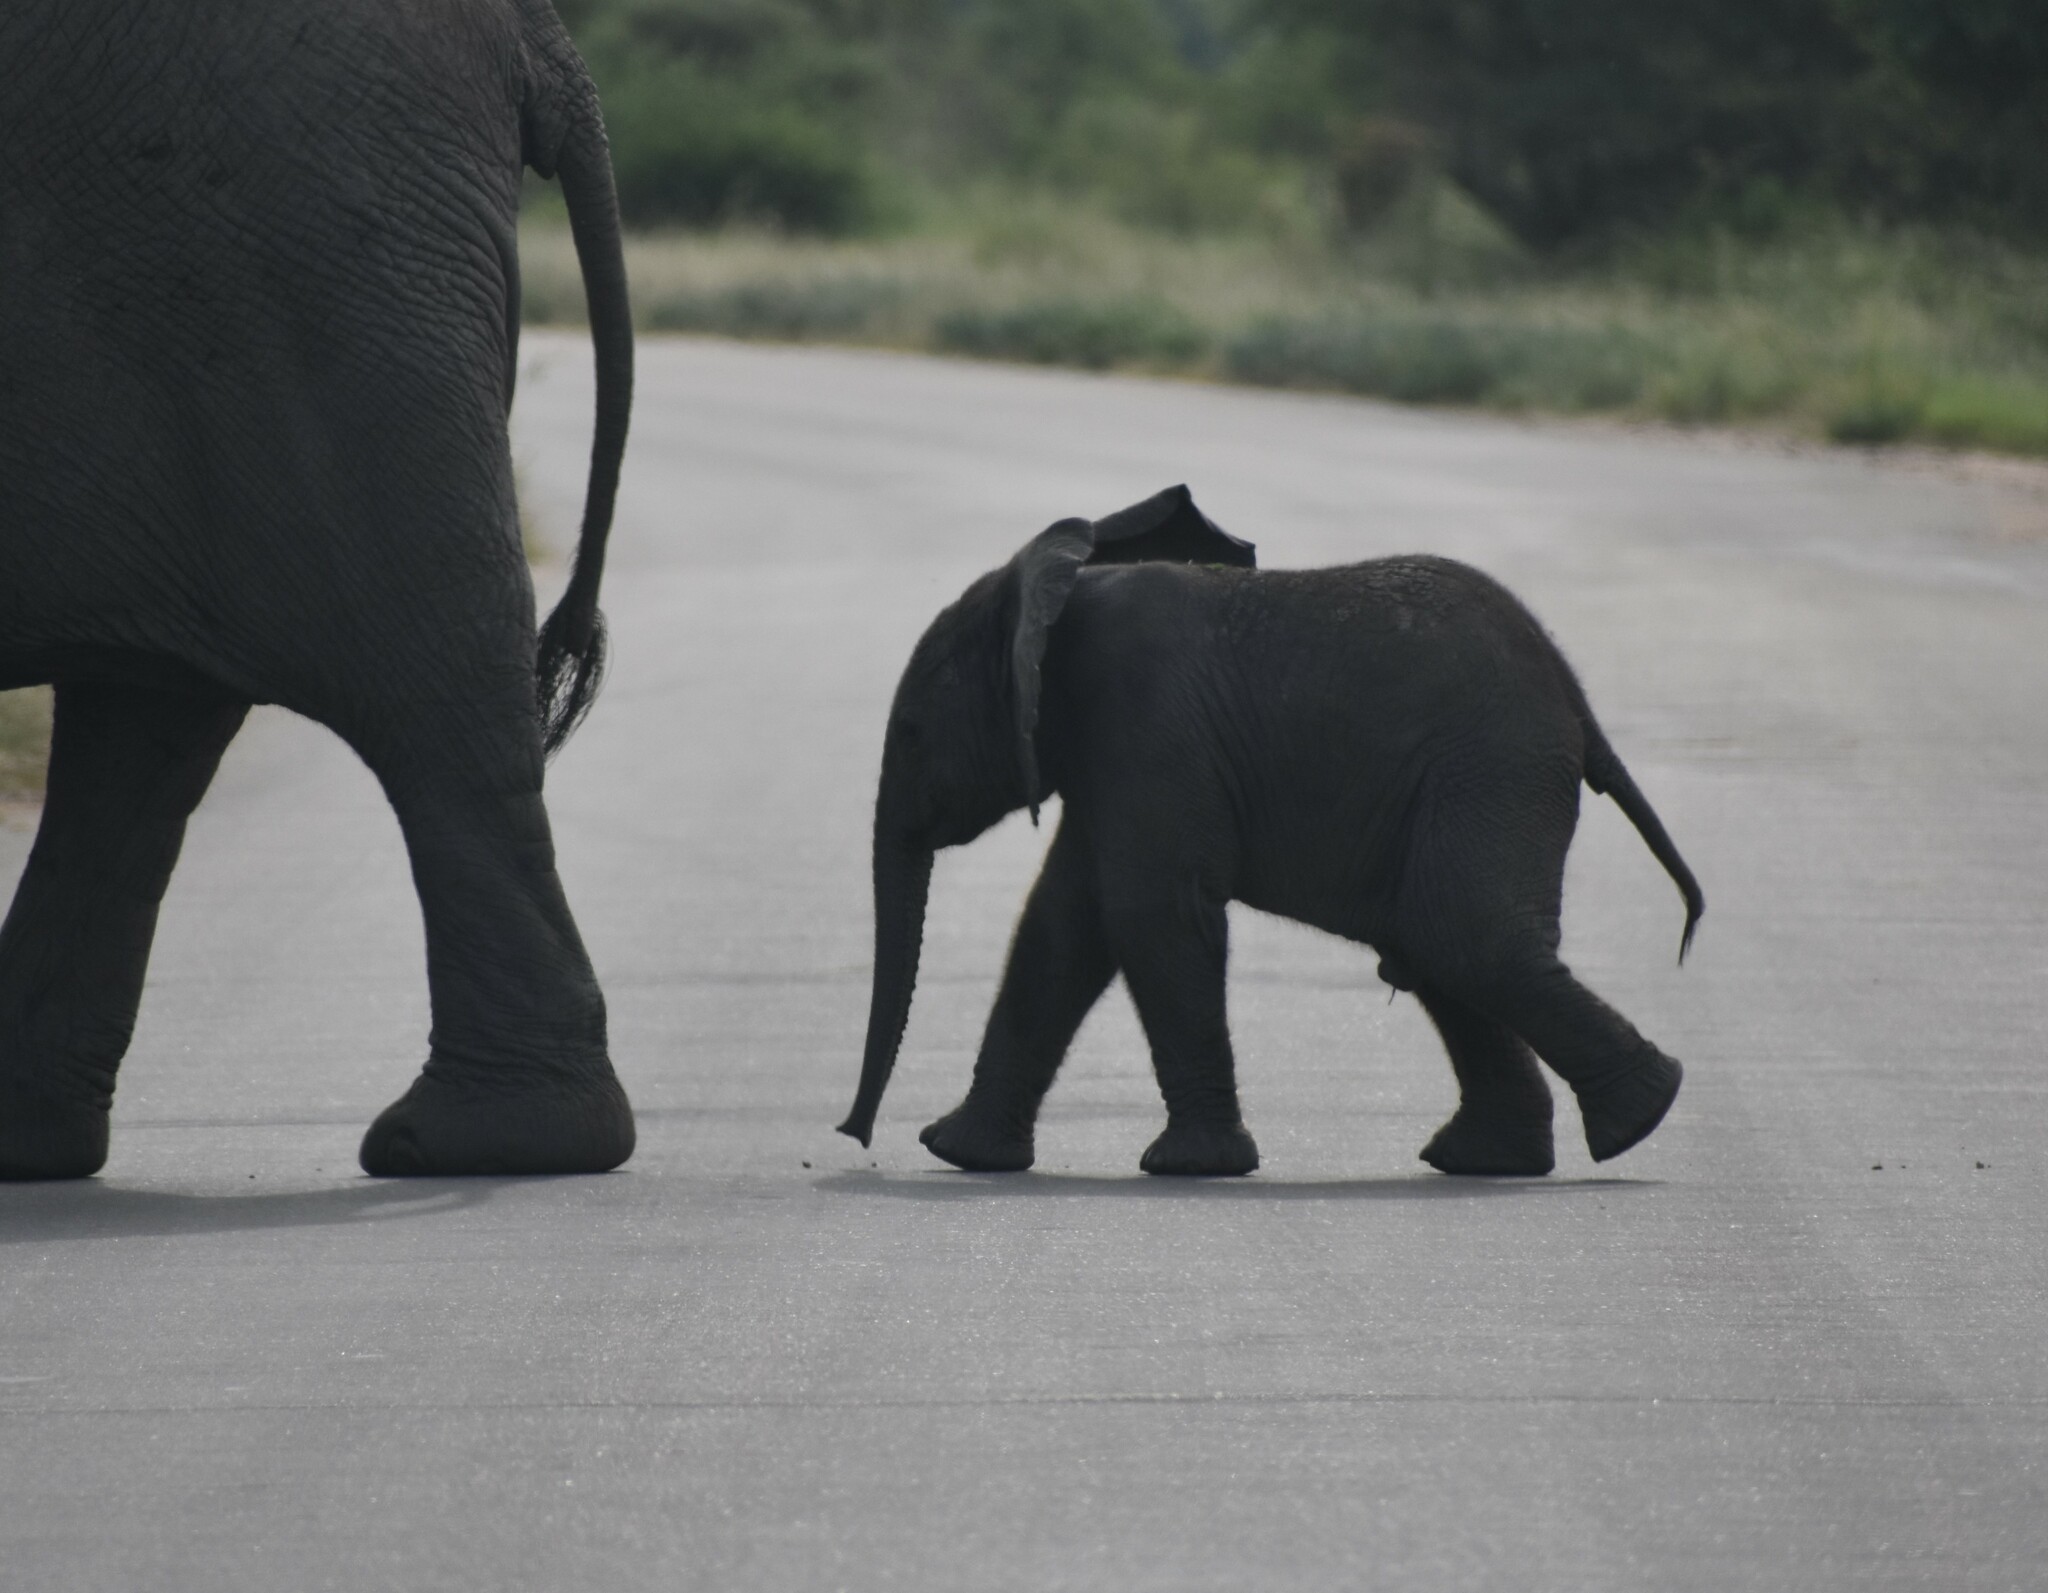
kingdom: Animalia
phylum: Chordata
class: Mammalia
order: Proboscidea
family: Elephantidae
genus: Loxodonta
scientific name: Loxodonta africana
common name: African elephant
